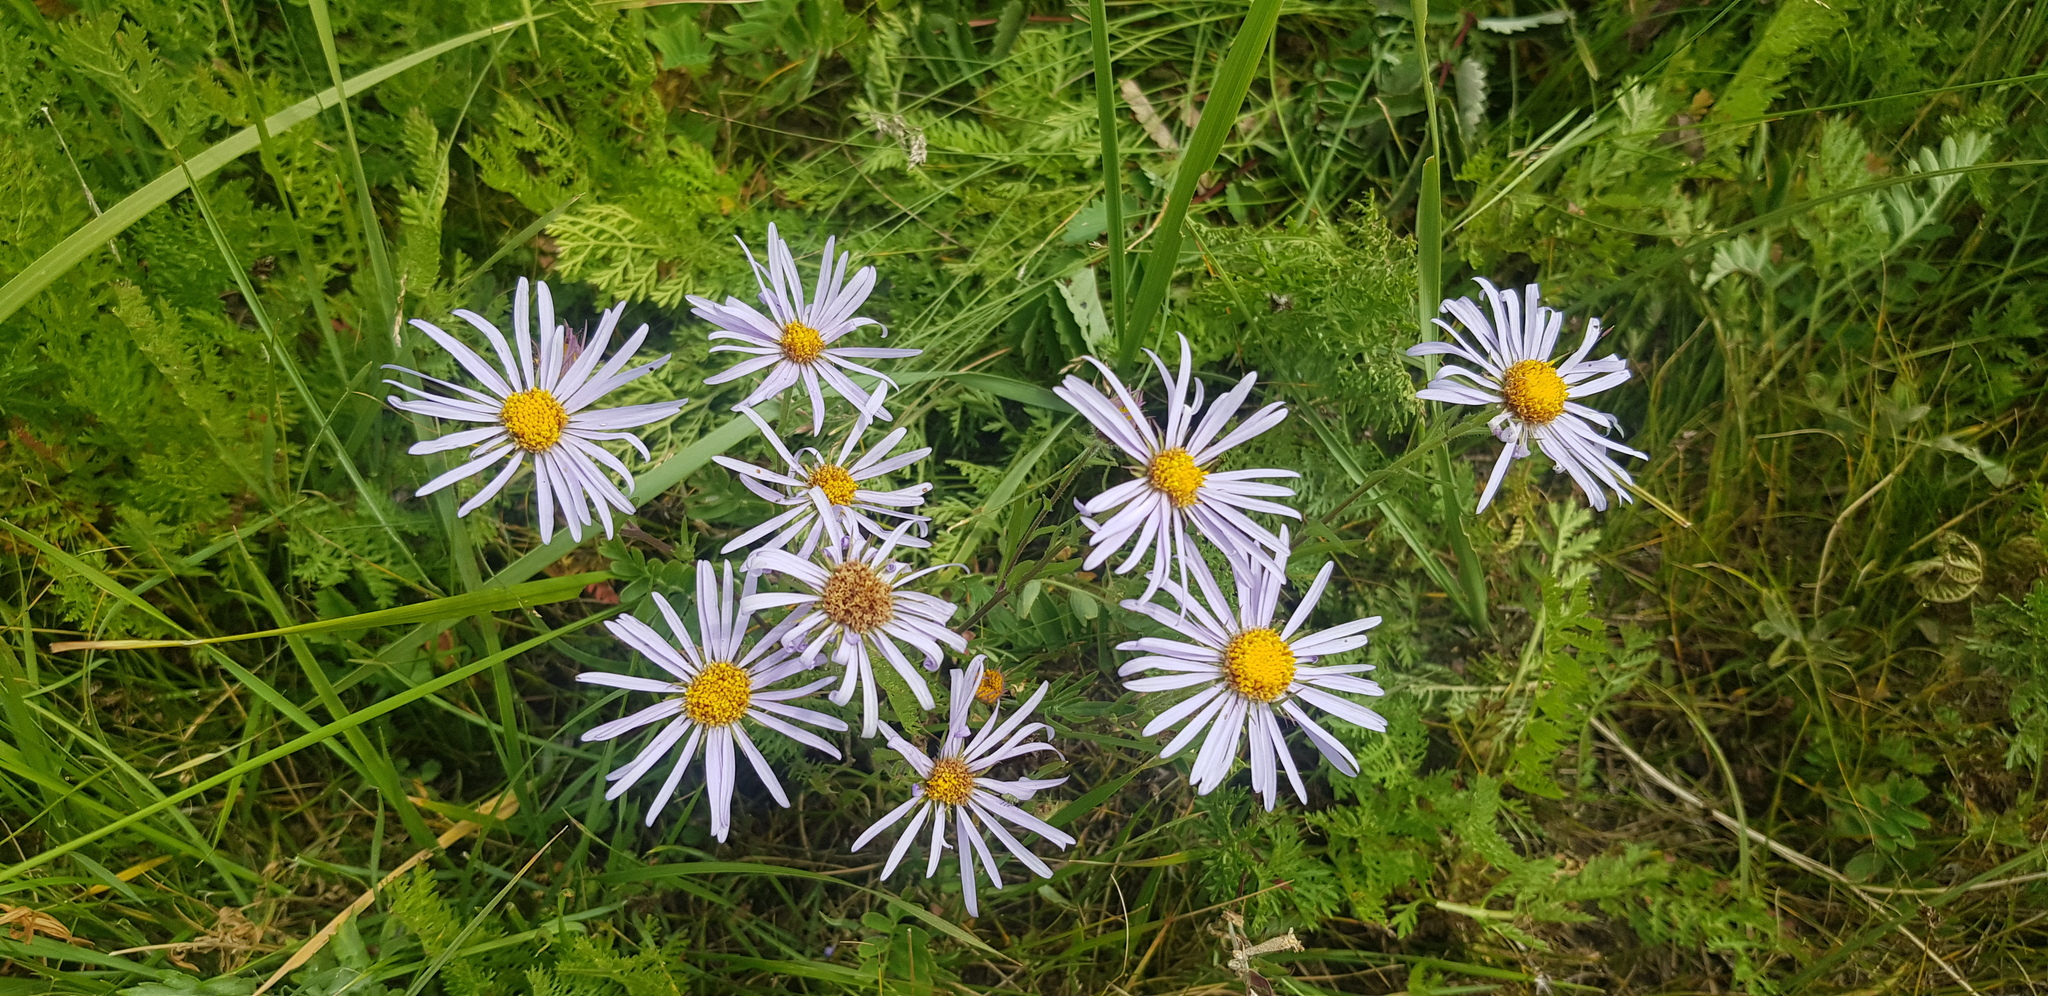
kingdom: Plantae
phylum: Tracheophyta
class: Magnoliopsida
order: Asterales
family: Asteraceae
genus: Heteropappus
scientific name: Heteropappus altaicus
